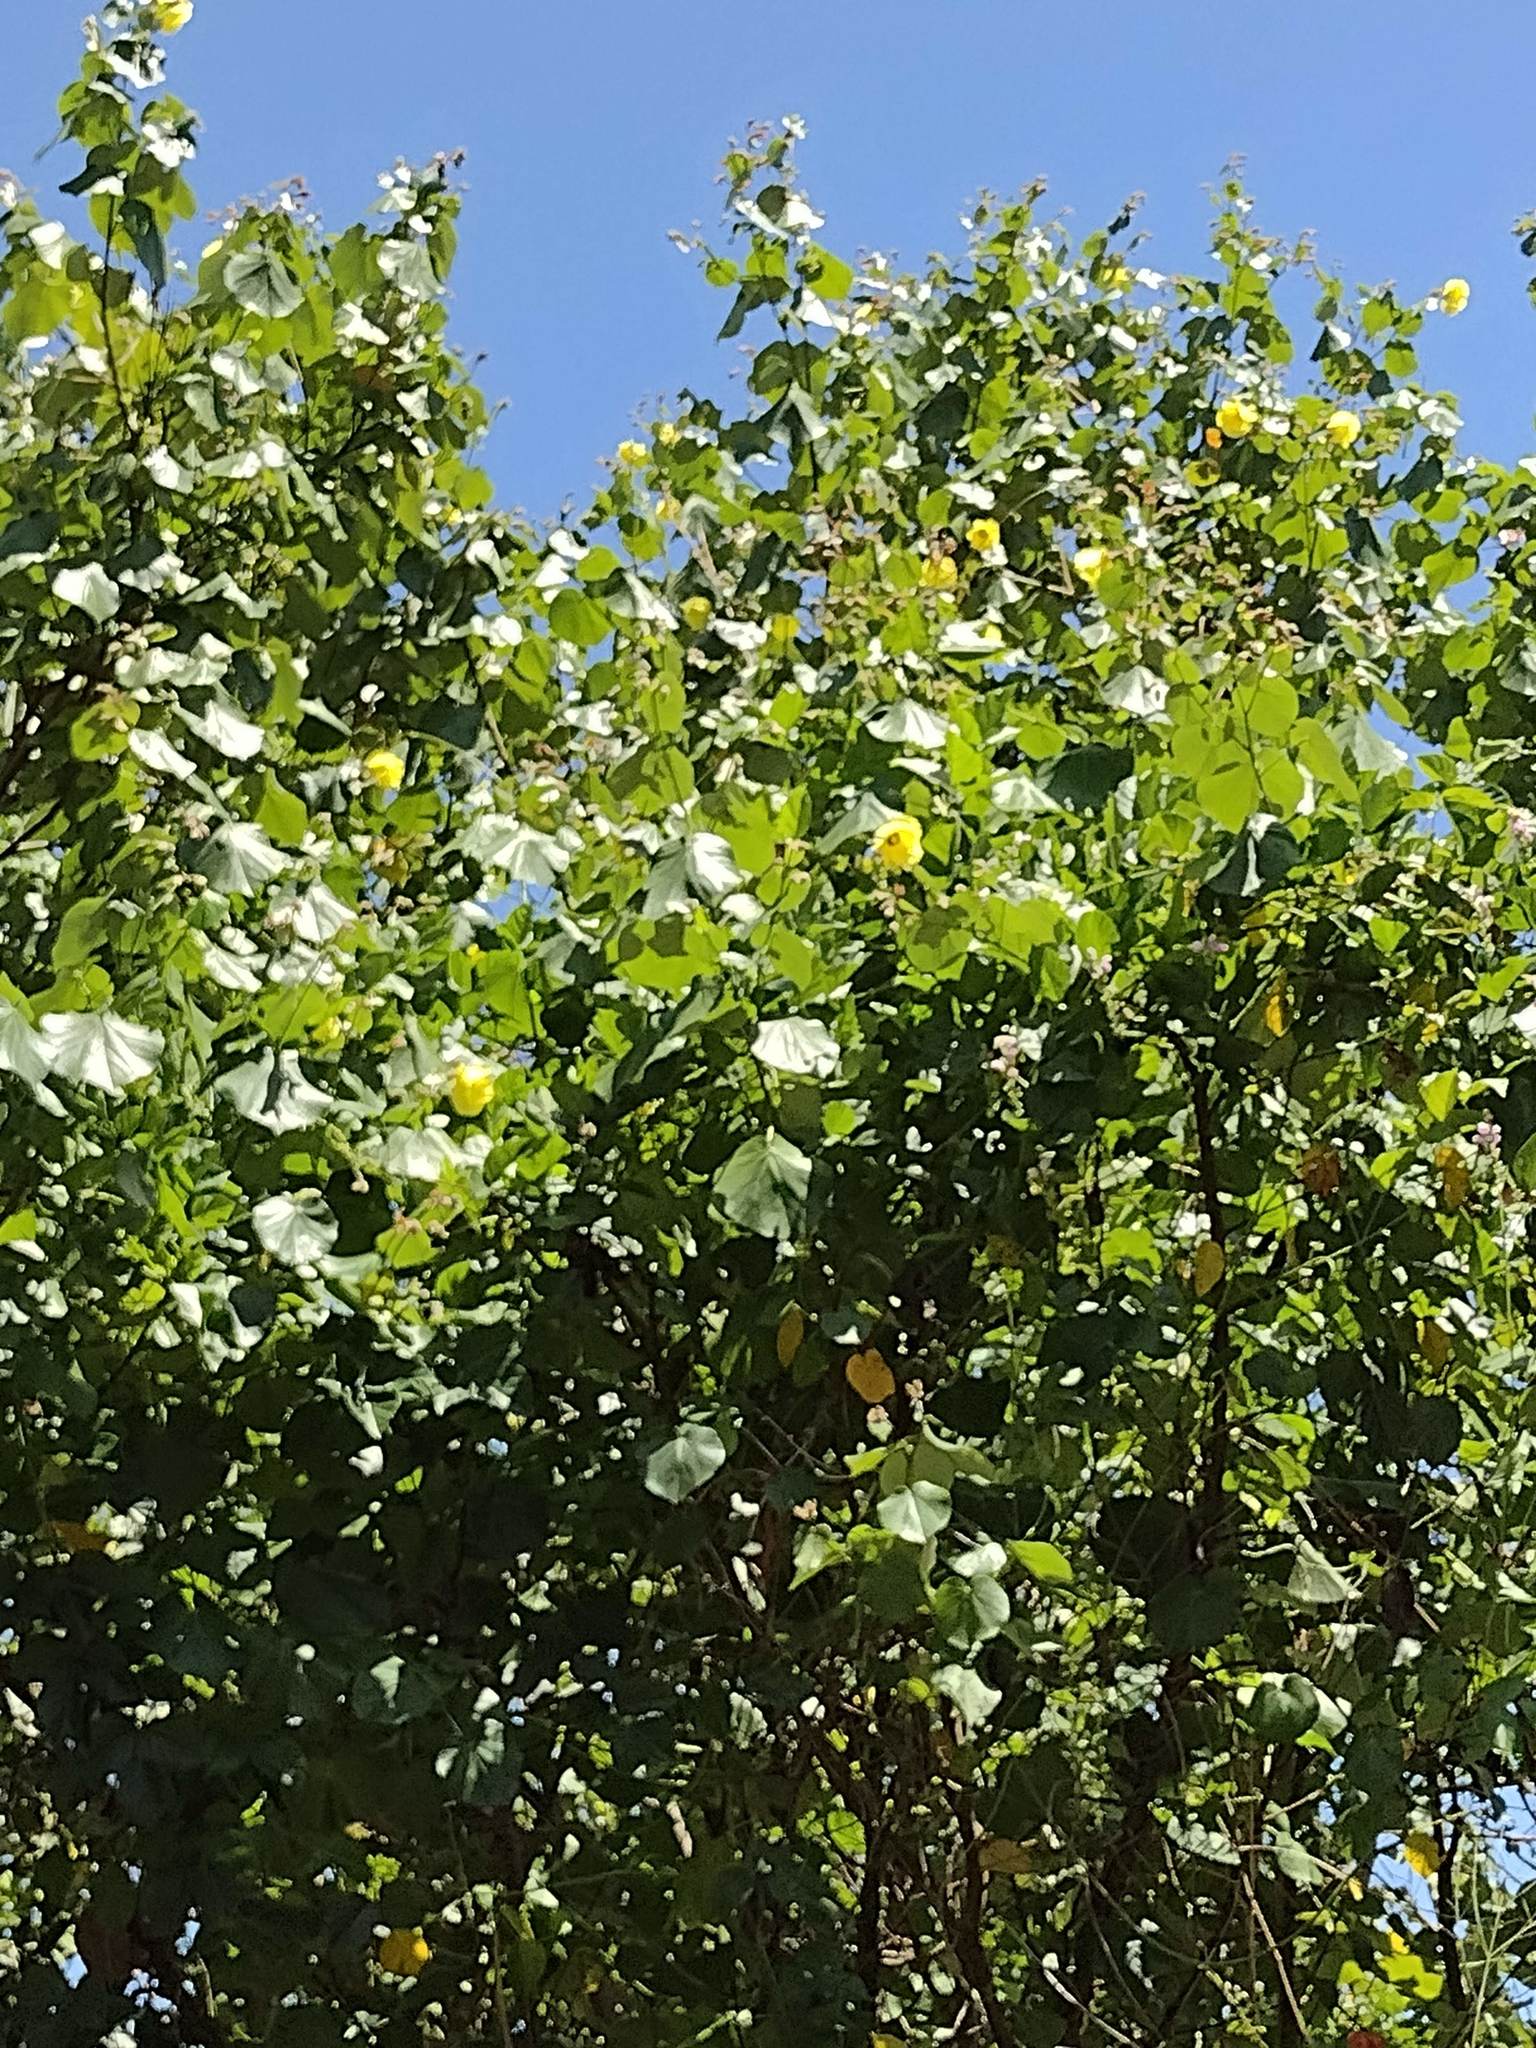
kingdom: Plantae
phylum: Tracheophyta
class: Magnoliopsida
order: Malvales
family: Malvaceae
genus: Talipariti
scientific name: Talipariti tiliaceum
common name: Sea hibiscus
